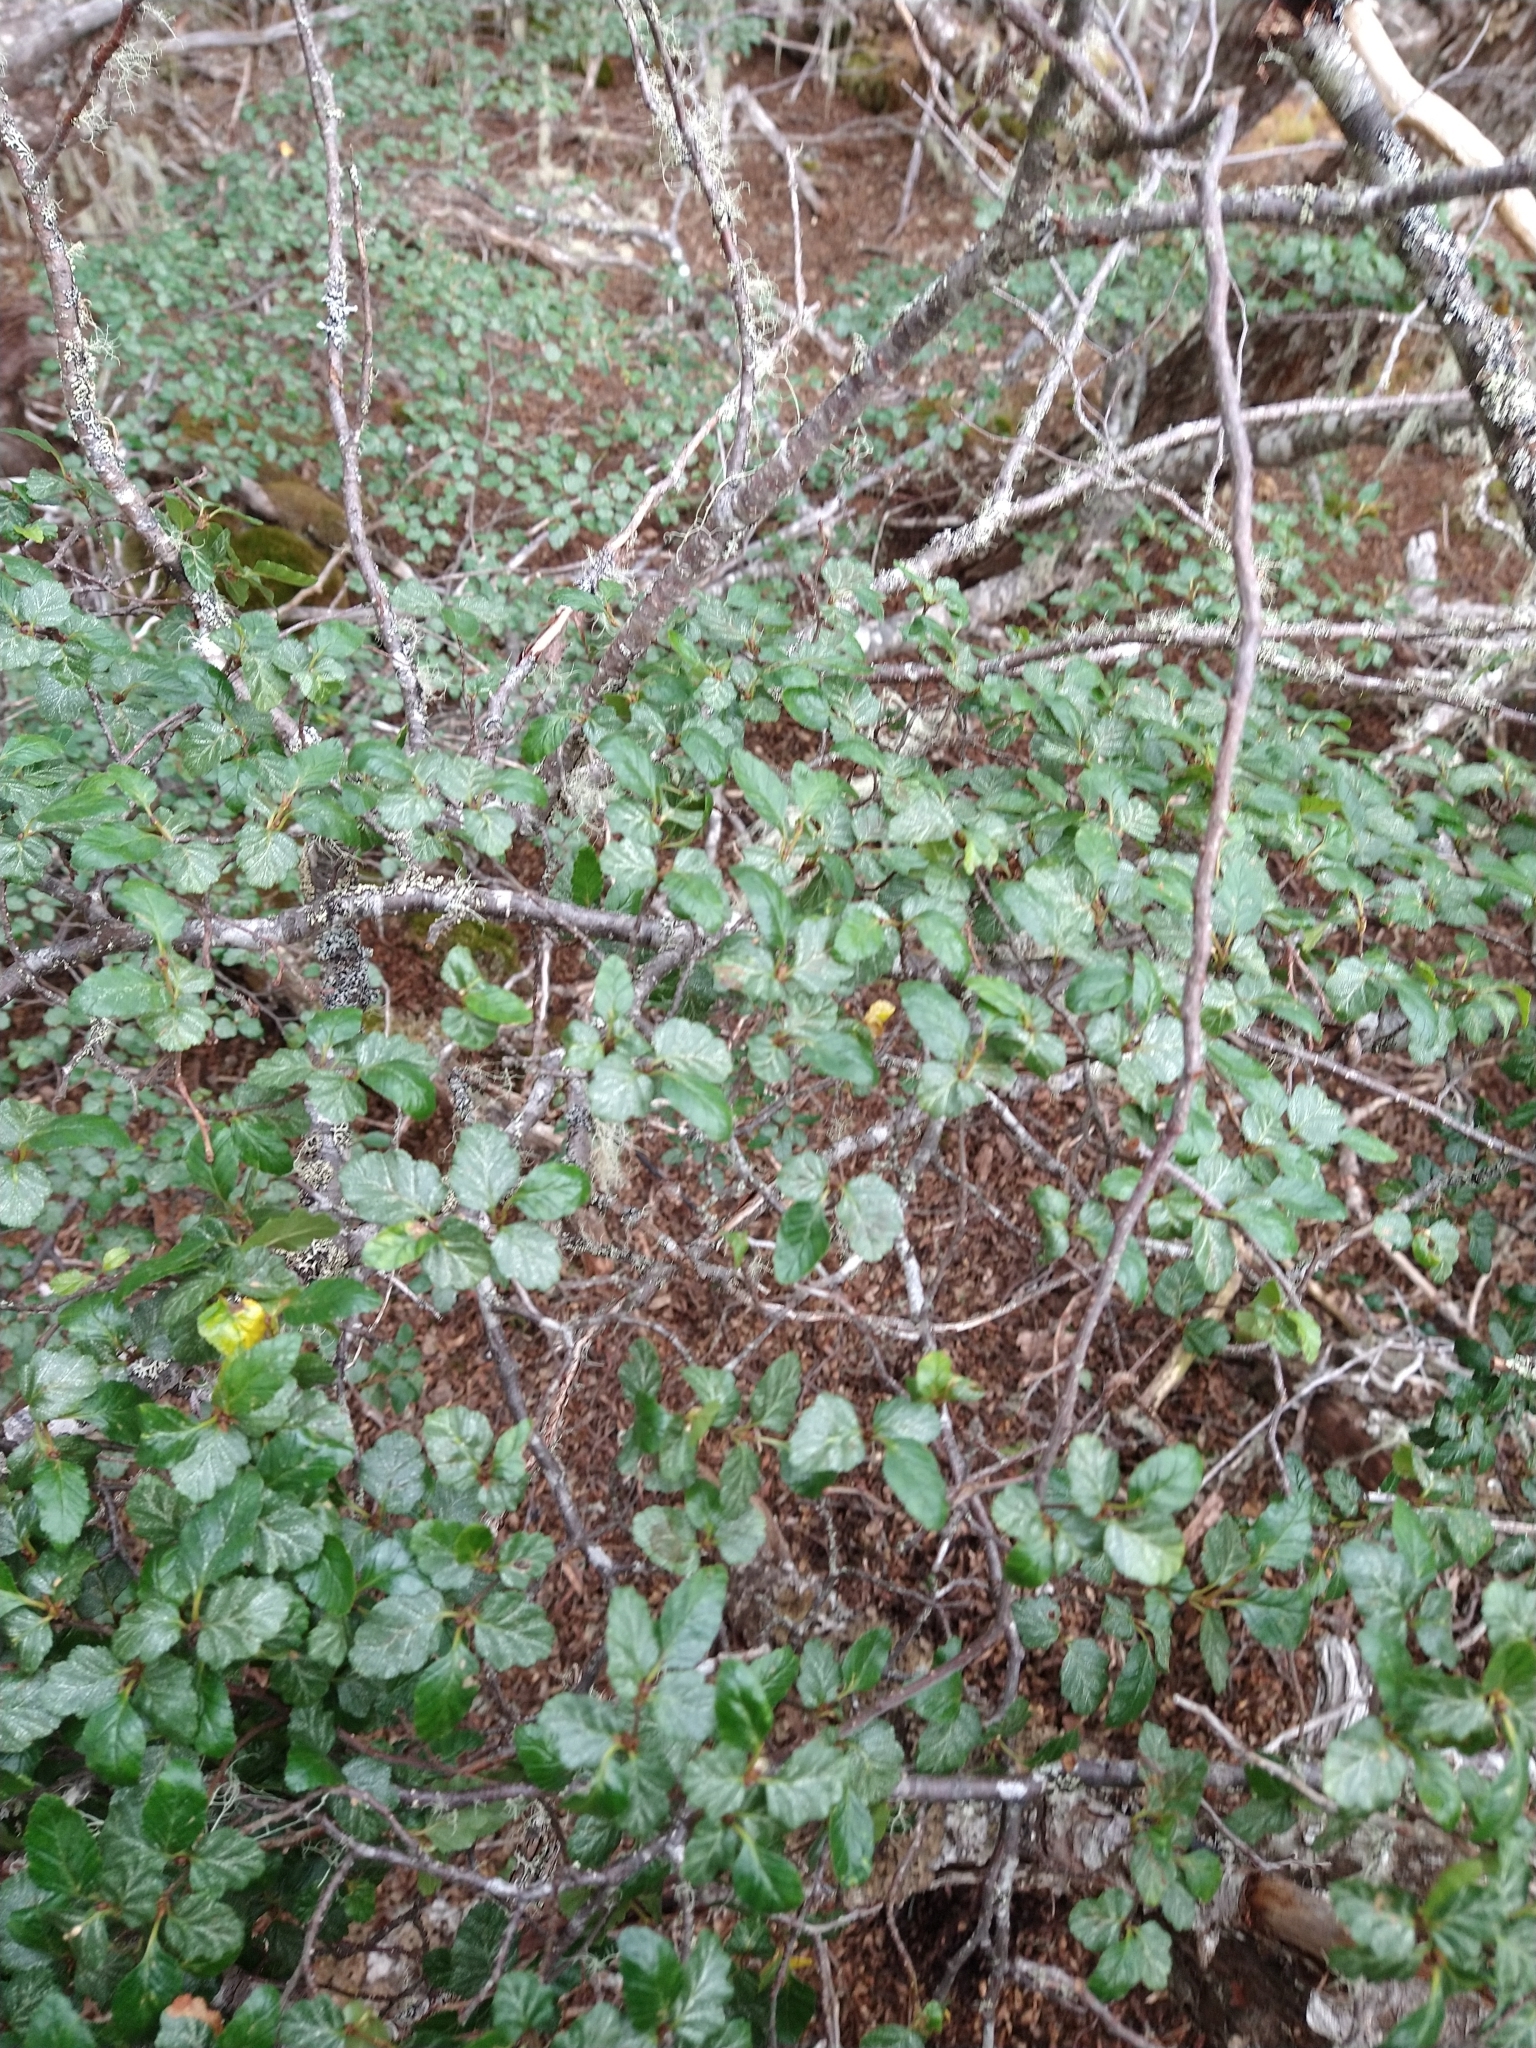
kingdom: Plantae
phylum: Tracheophyta
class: Magnoliopsida
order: Fagales
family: Nothofagaceae
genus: Nothofagus
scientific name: Nothofagus antarctica
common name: Antarctic beech
